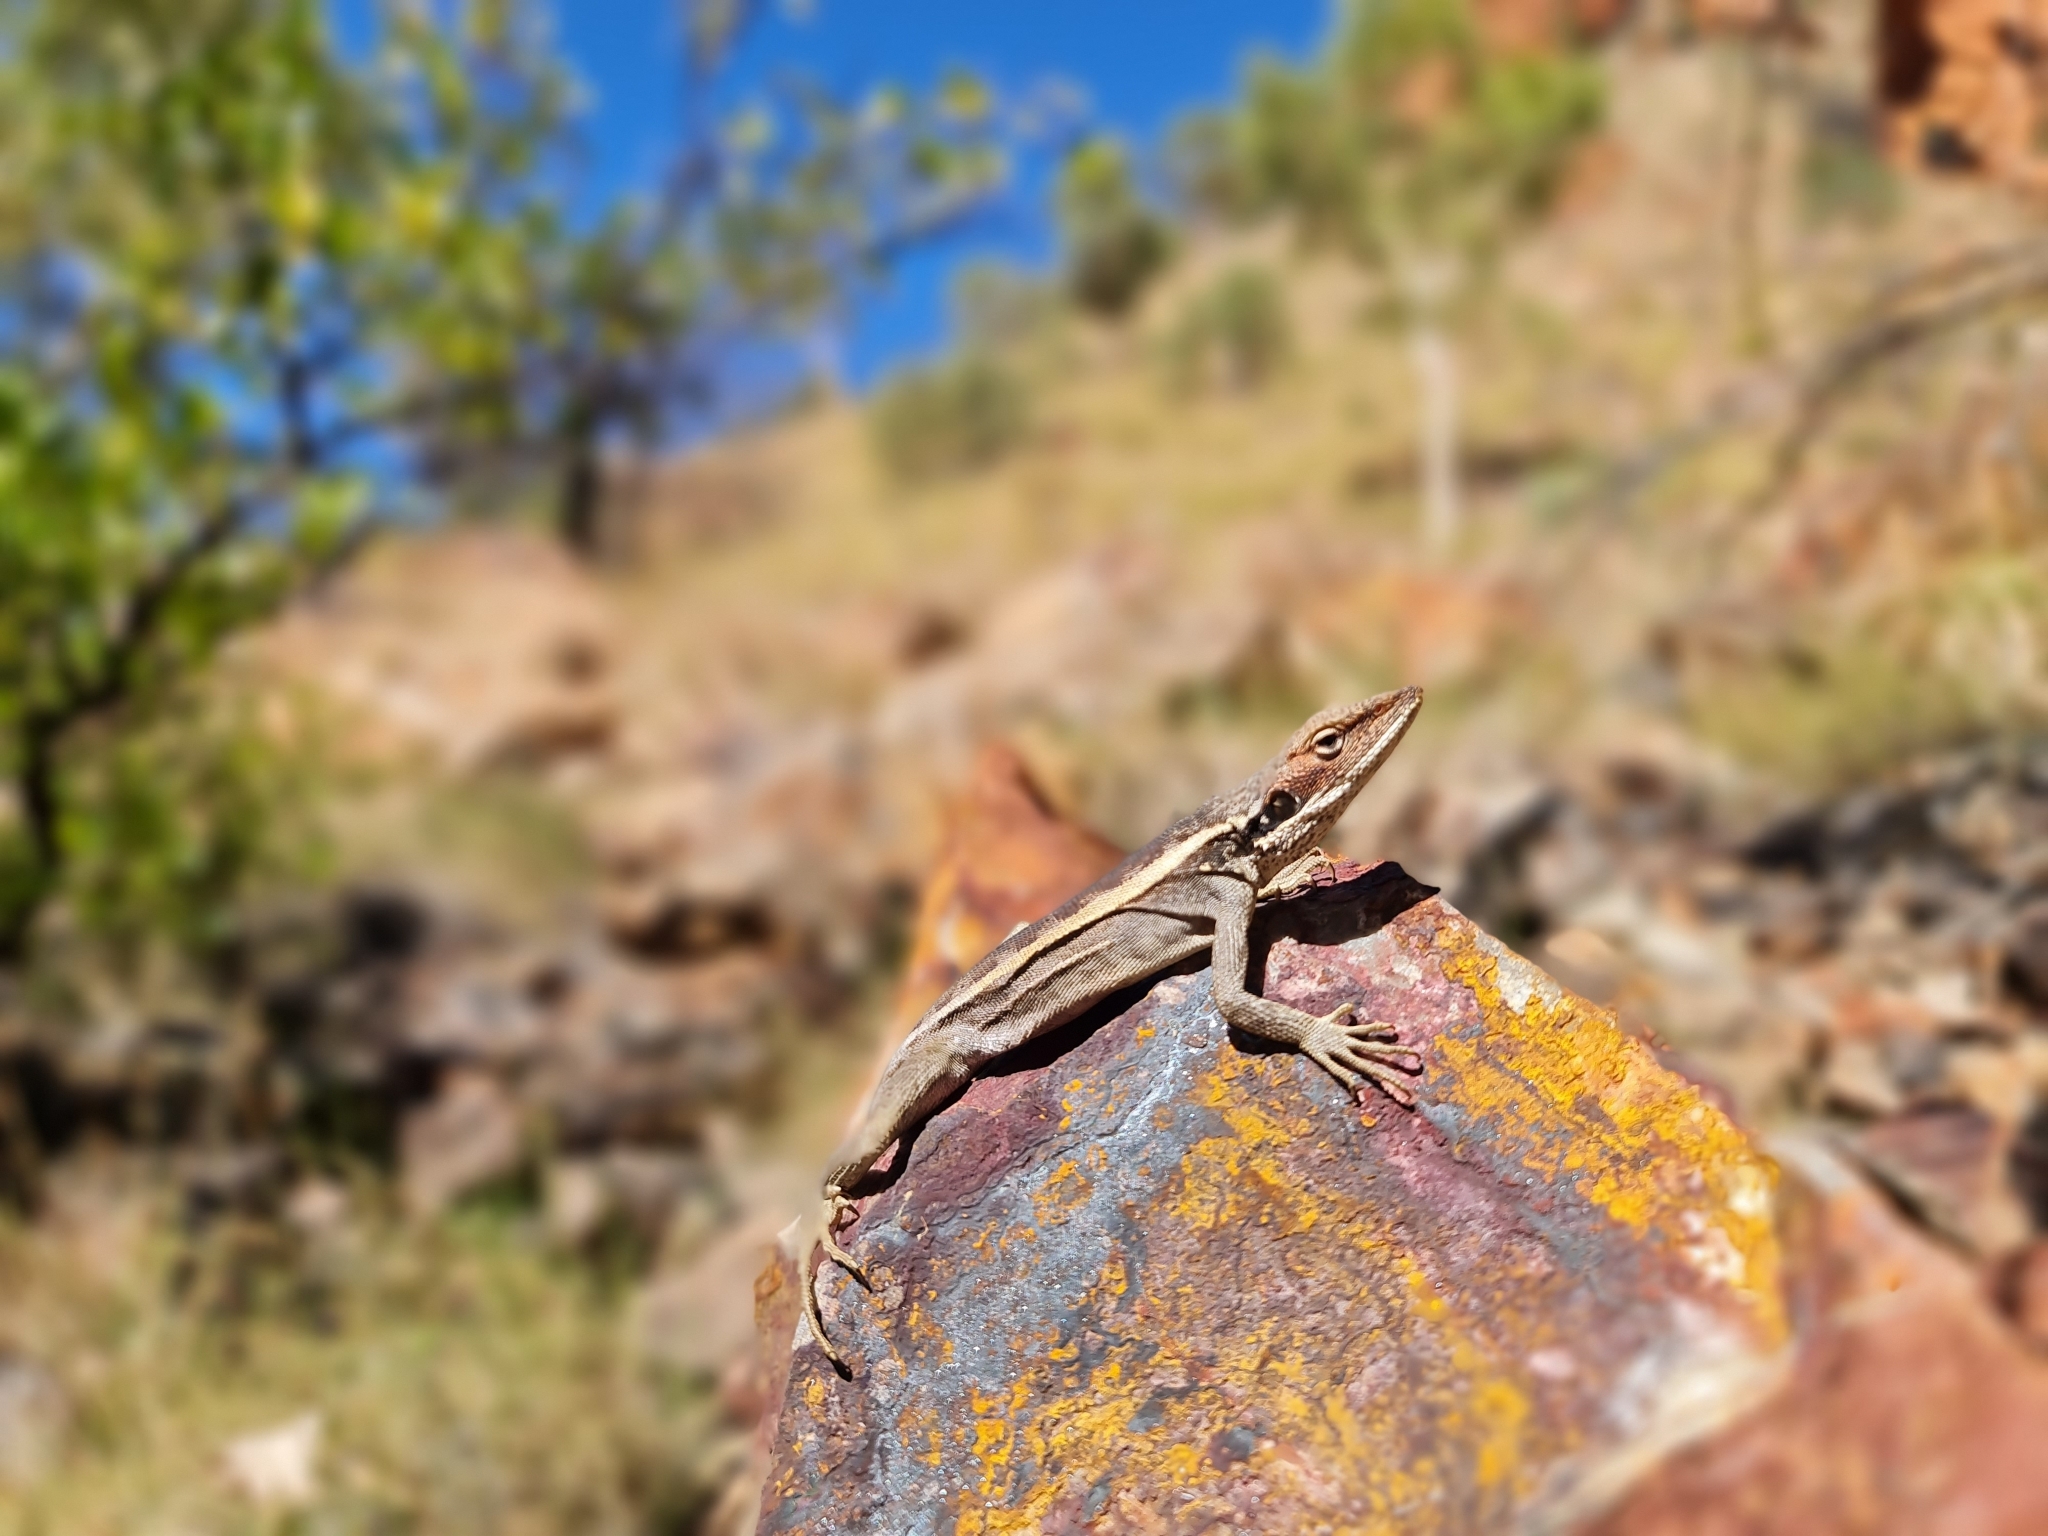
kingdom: Animalia
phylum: Chordata
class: Squamata
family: Agamidae
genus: Gowidon
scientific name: Gowidon longirostris
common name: Long-nosed water dragon
